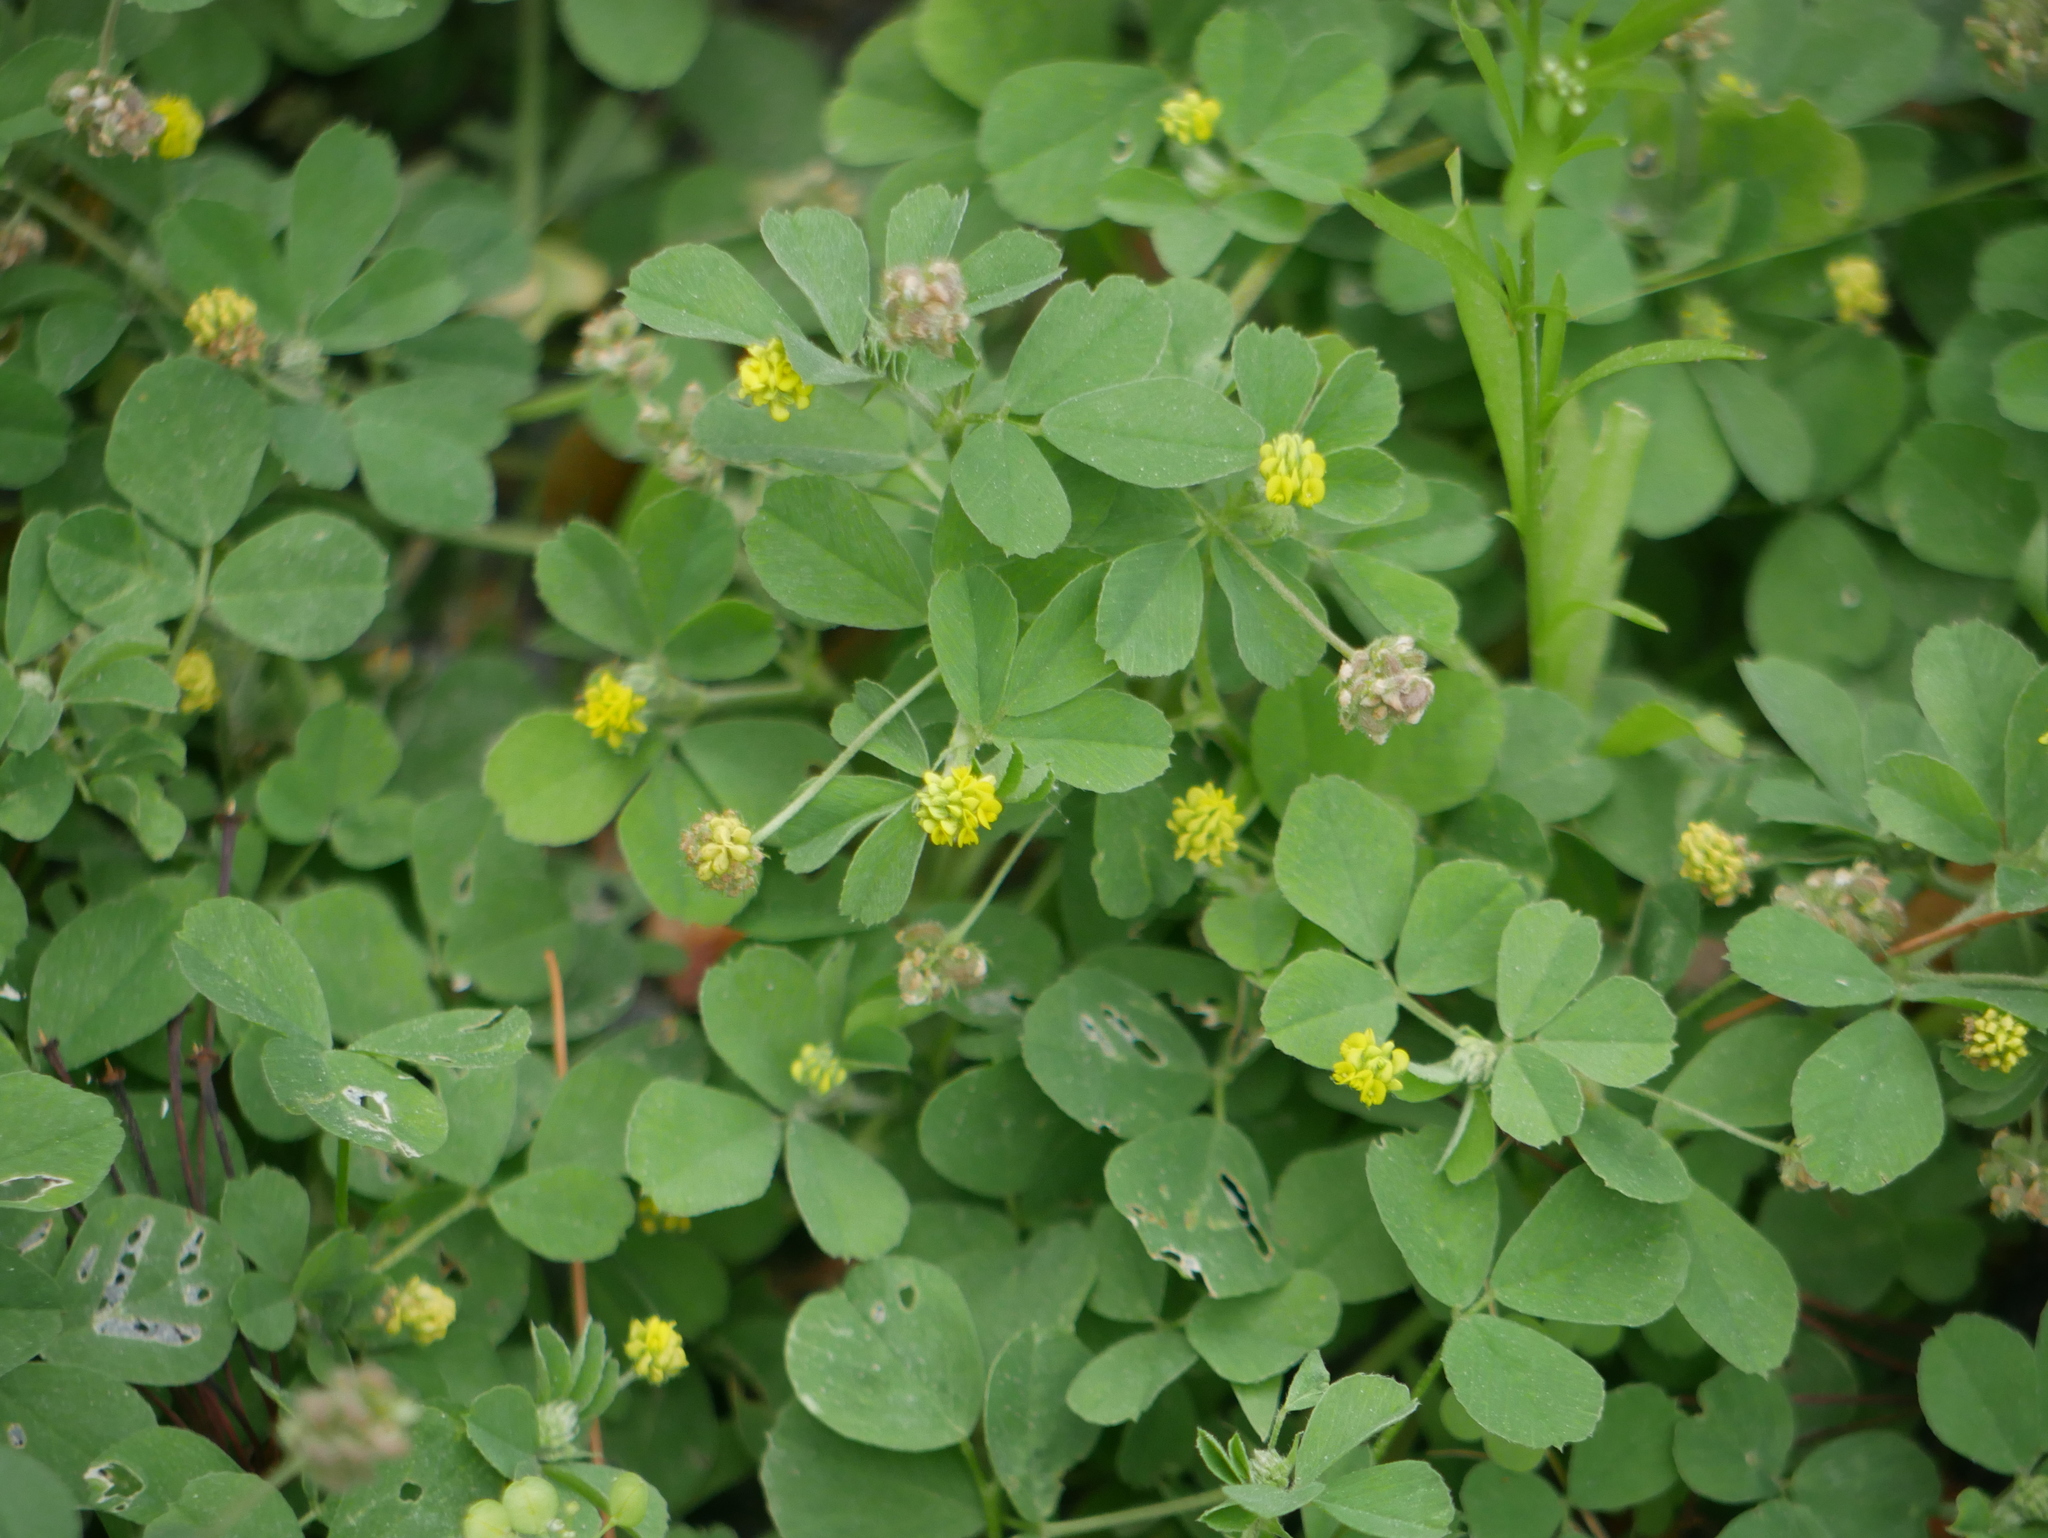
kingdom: Plantae
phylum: Tracheophyta
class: Magnoliopsida
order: Fabales
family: Fabaceae
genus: Medicago
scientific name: Medicago lupulina
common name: Black medick
